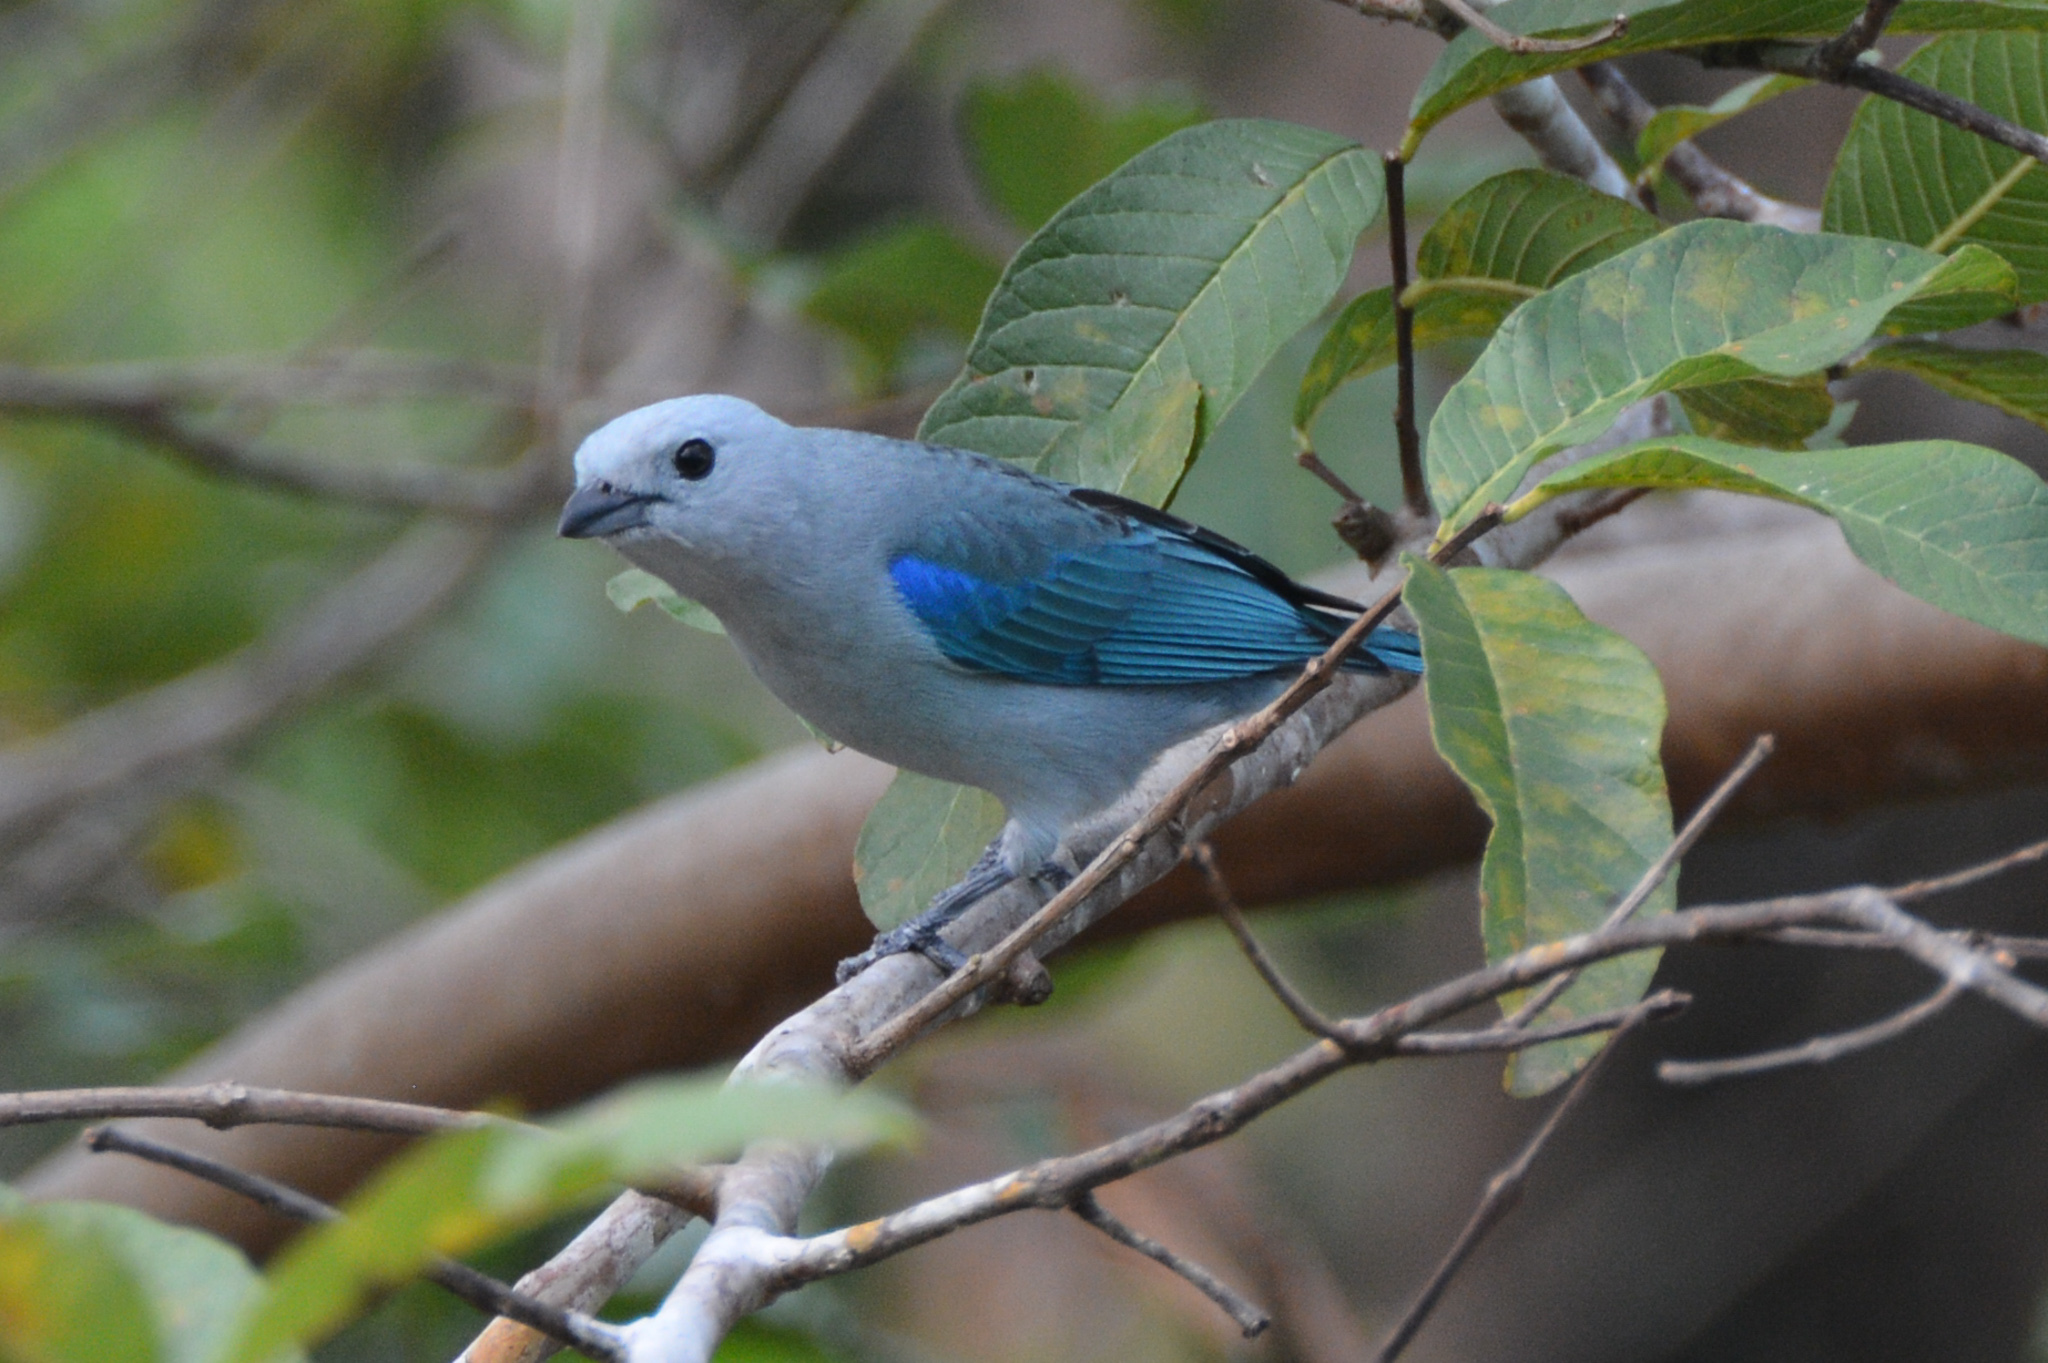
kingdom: Animalia
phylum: Chordata
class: Aves
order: Passeriformes
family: Thraupidae
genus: Thraupis
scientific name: Thraupis episcopus
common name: Blue-grey tanager
